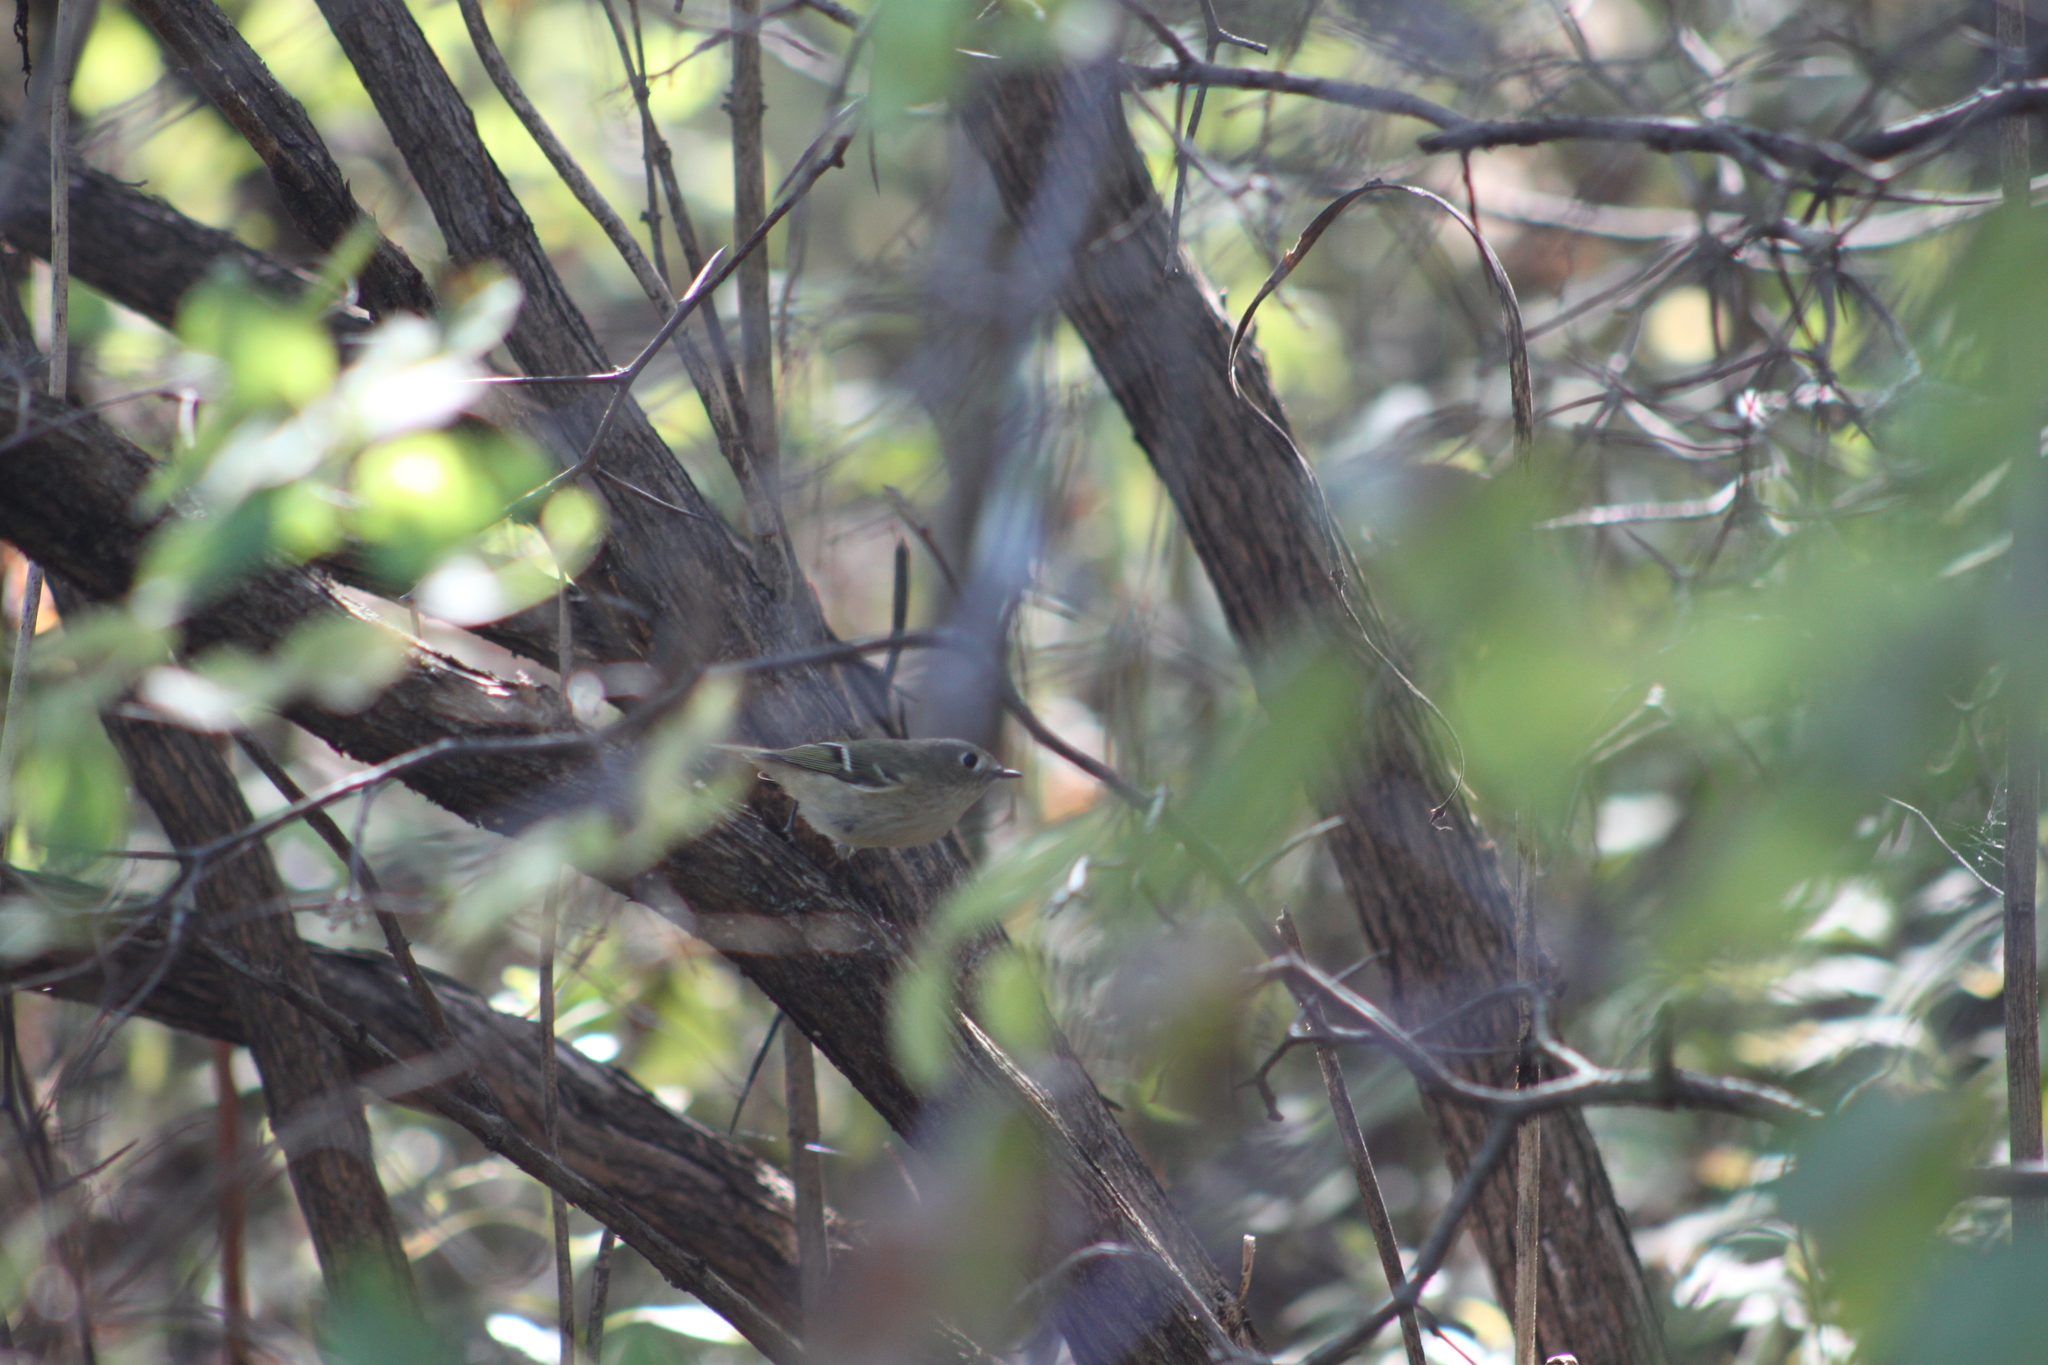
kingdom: Animalia
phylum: Chordata
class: Aves
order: Passeriformes
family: Regulidae
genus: Regulus
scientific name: Regulus calendula
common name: Ruby-crowned kinglet
